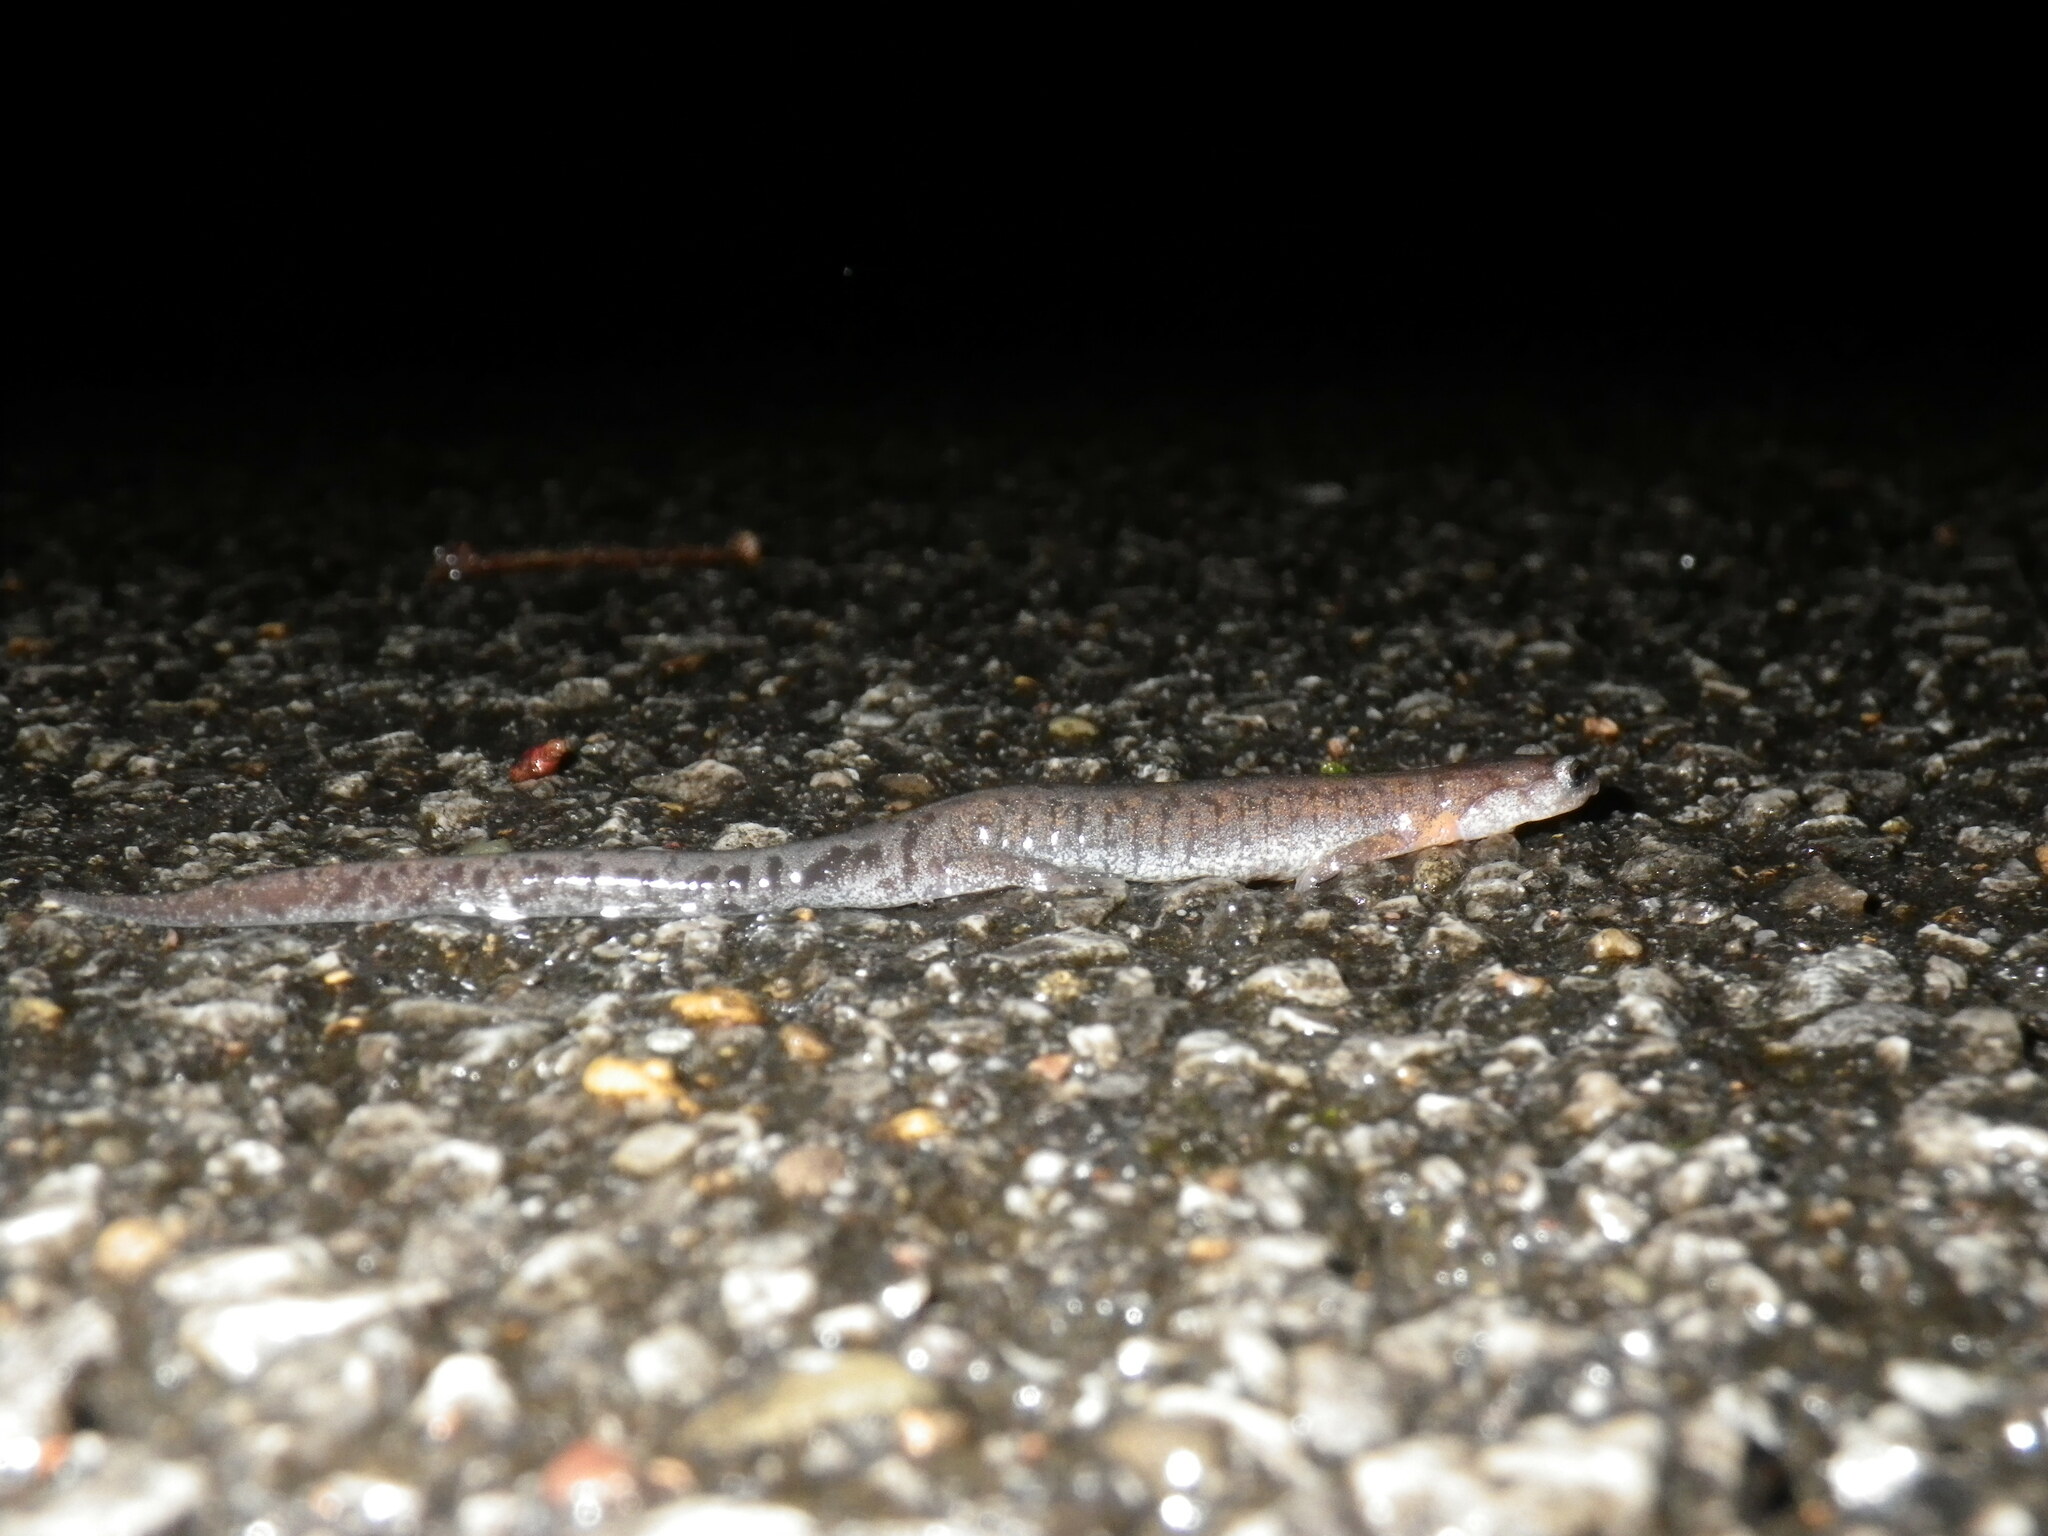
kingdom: Animalia
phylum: Chordata
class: Amphibia
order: Caudata
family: Plethodontidae
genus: Plethodon
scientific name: Plethodon dorsalis
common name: Northern zigzag salamander
